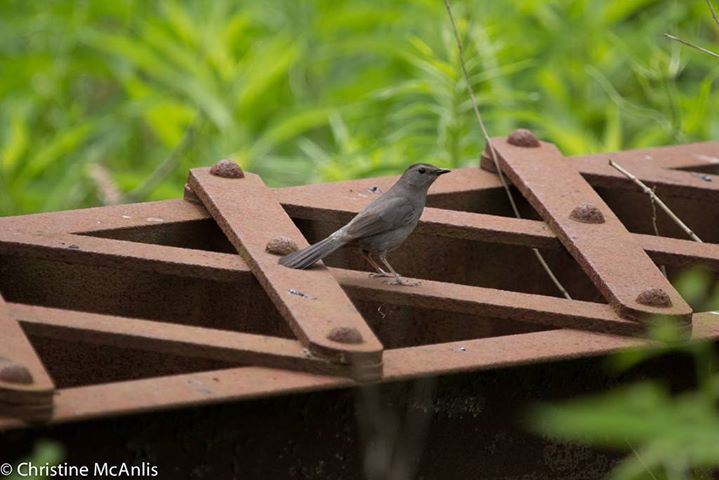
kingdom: Animalia
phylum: Chordata
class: Aves
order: Passeriformes
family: Mimidae
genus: Dumetella
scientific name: Dumetella carolinensis
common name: Gray catbird
